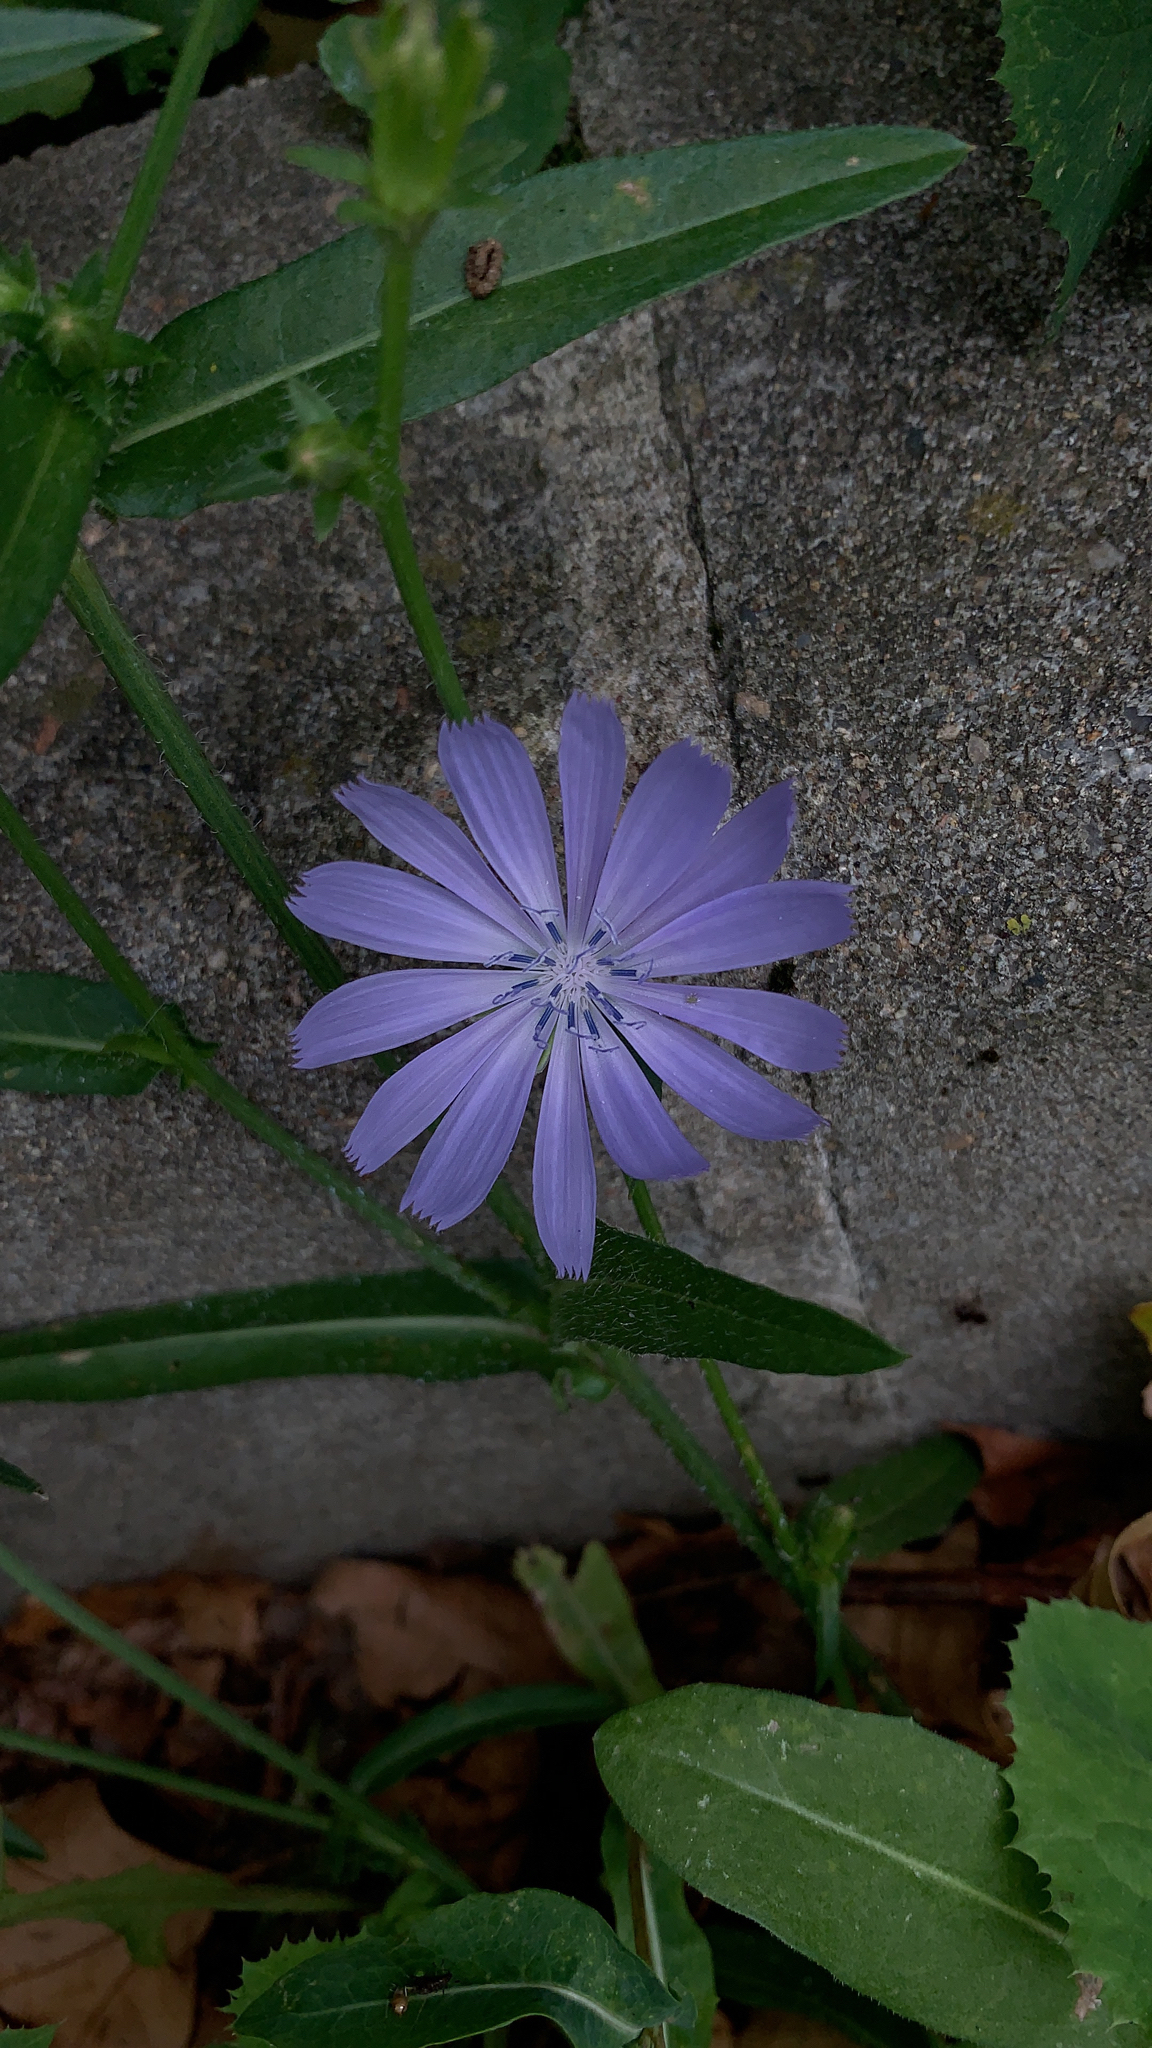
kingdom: Plantae
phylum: Tracheophyta
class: Magnoliopsida
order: Asterales
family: Asteraceae
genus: Cichorium
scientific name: Cichorium intybus
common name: Chicory
